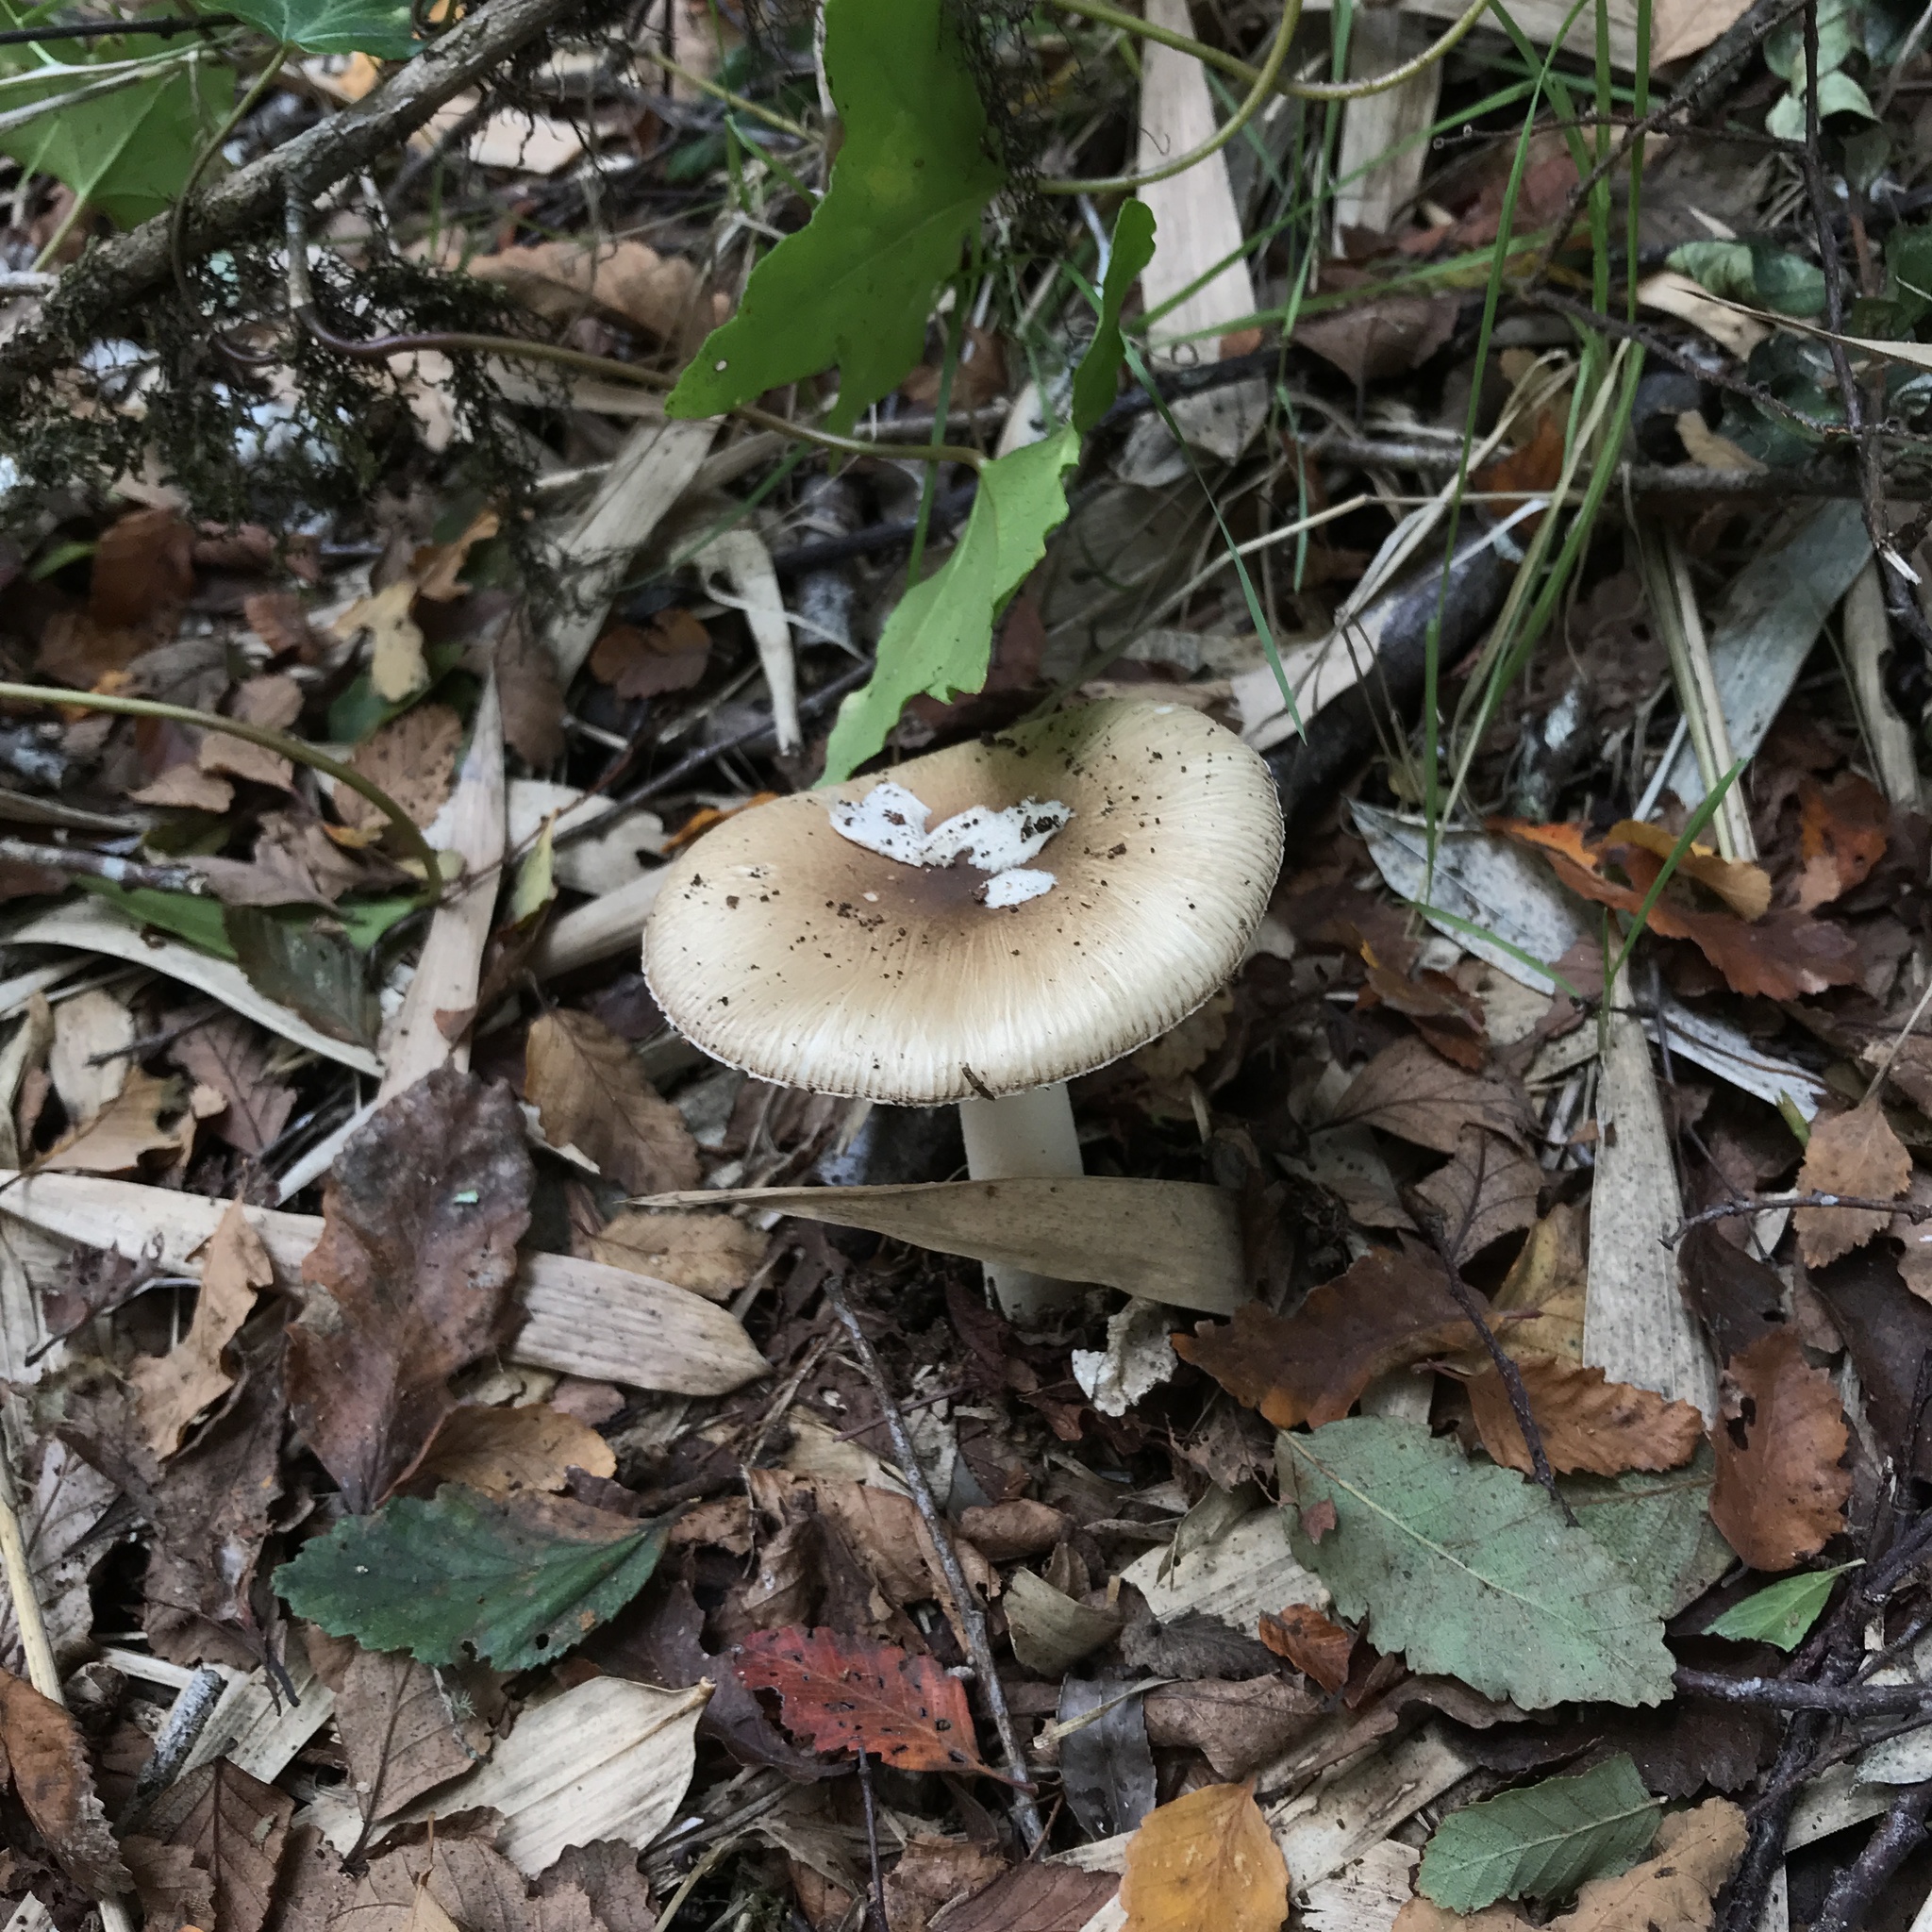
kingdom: Fungi
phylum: Basidiomycota
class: Agaricomycetes
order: Agaricales
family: Amanitaceae
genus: Amanita
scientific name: Amanita diemii
